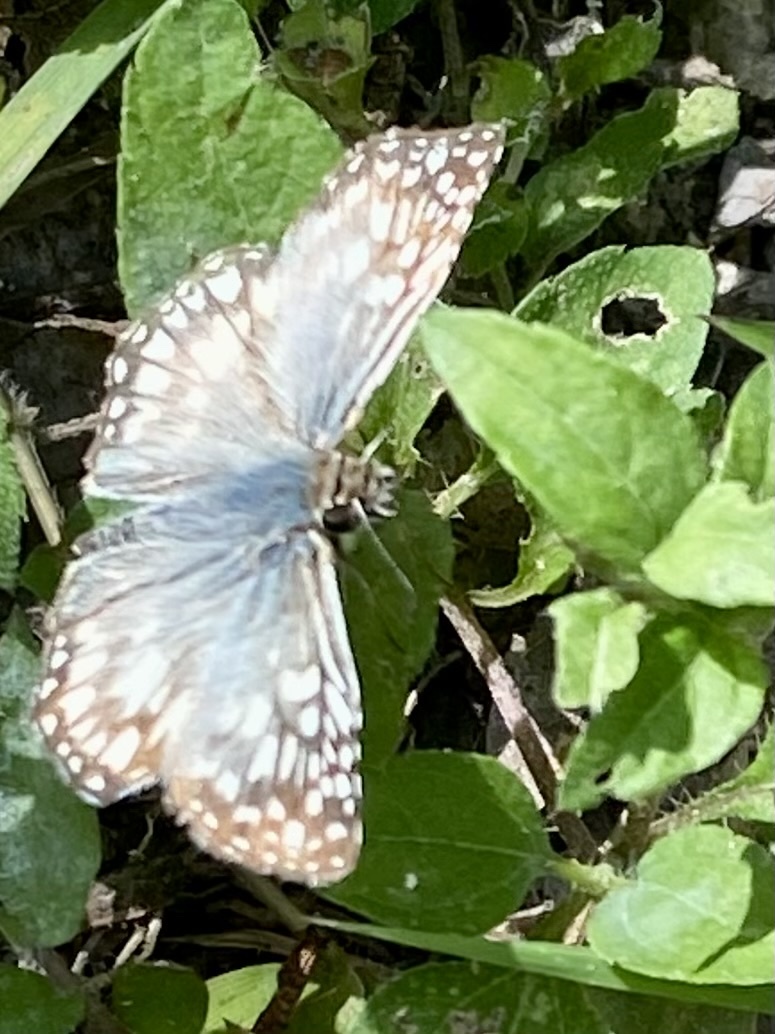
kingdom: Animalia
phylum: Arthropoda
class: Insecta
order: Lepidoptera
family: Hesperiidae
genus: Pyrgus
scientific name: Pyrgus oileus
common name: Tropical checkered-skipper
